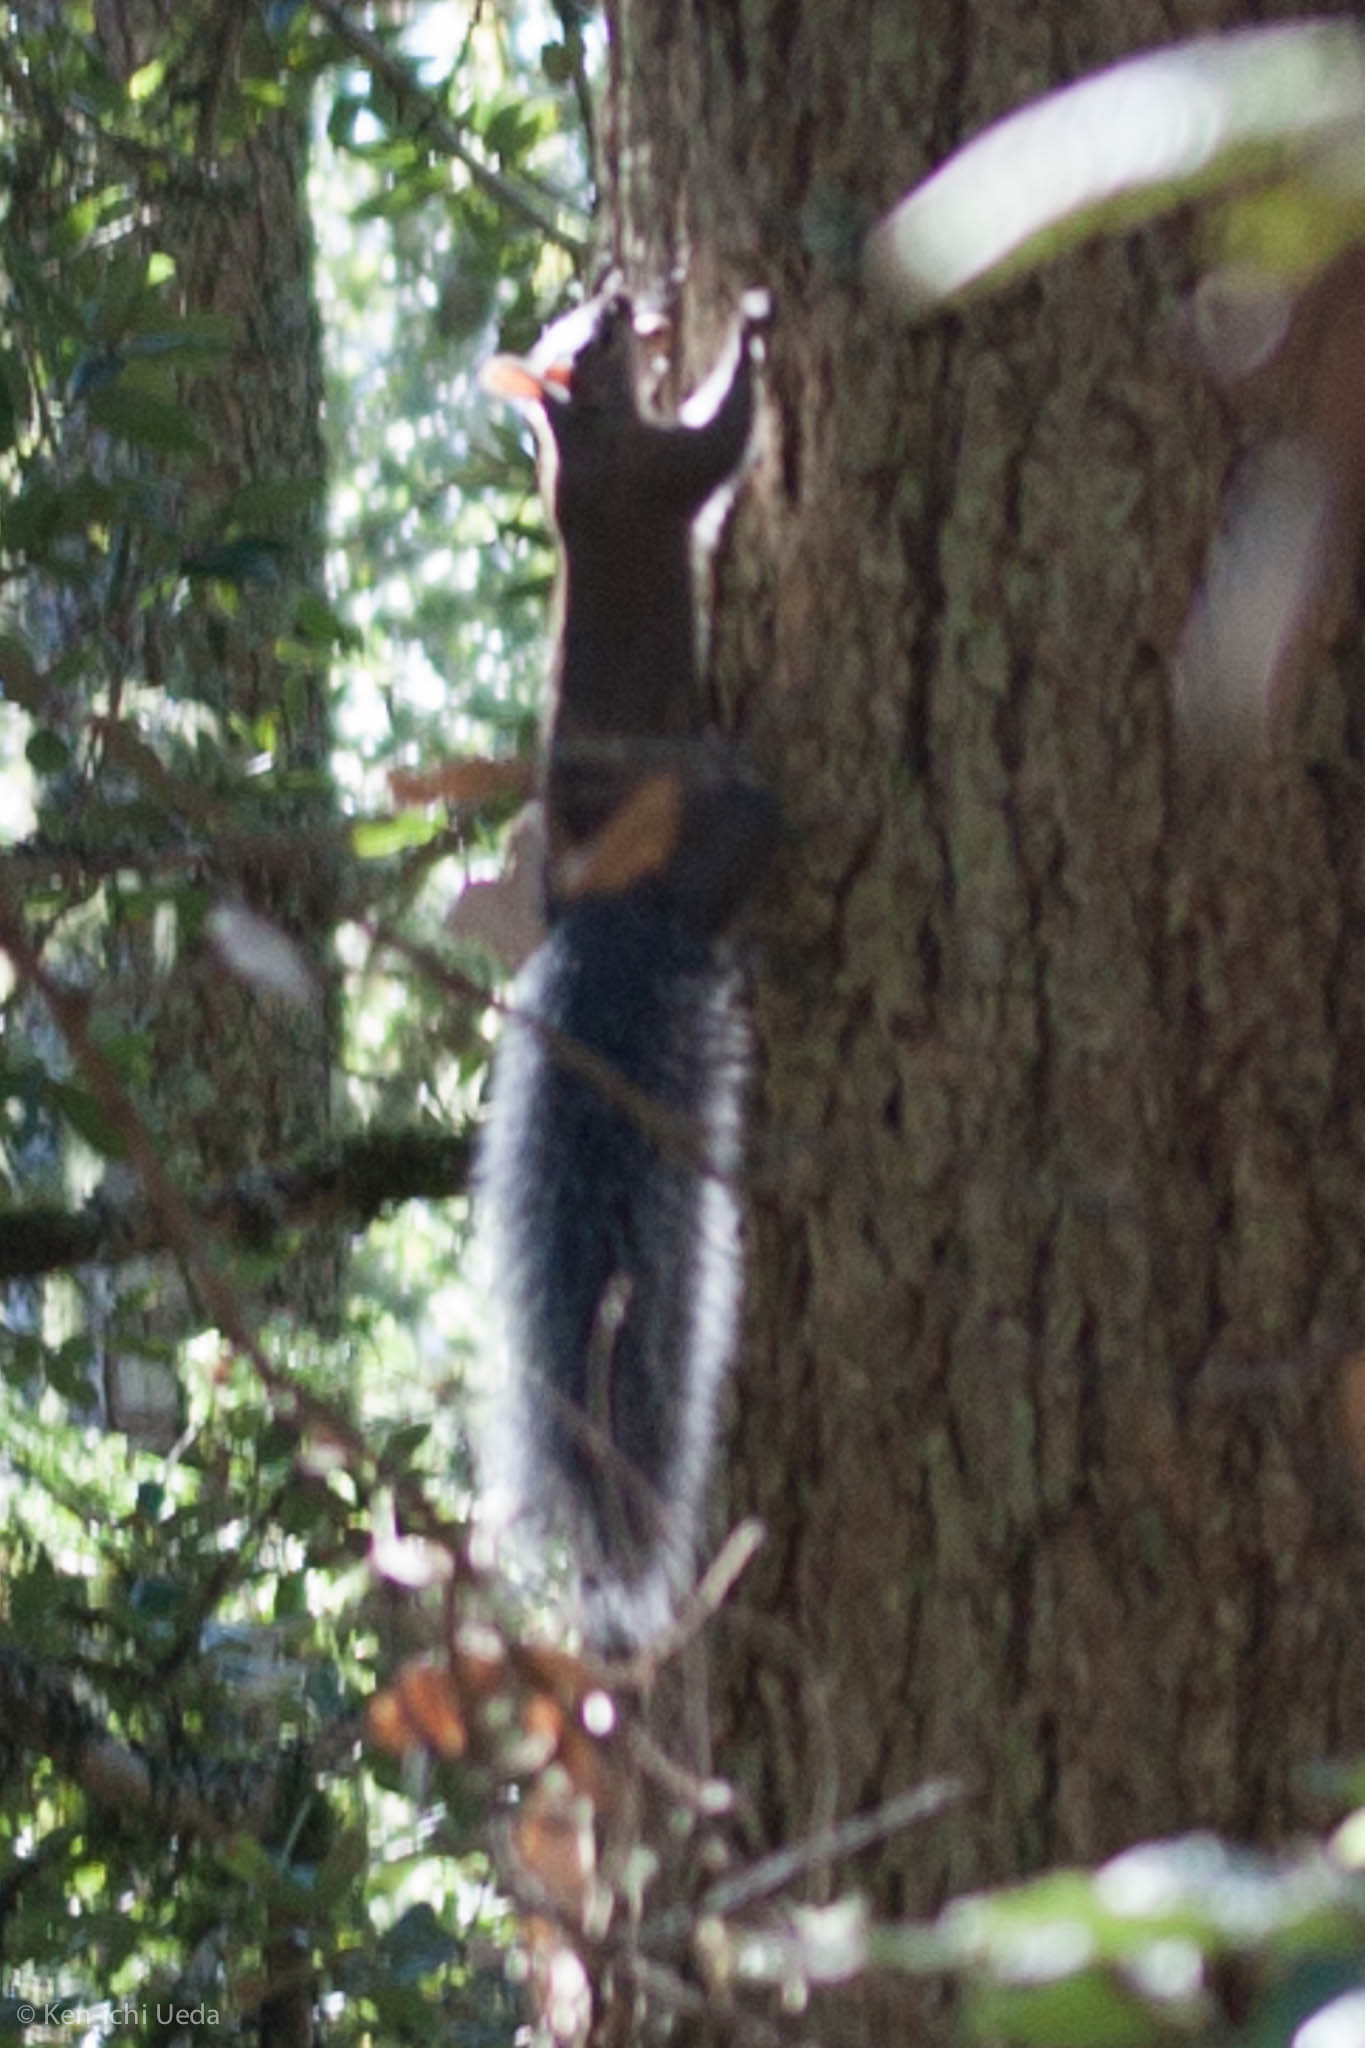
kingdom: Animalia
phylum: Chordata
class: Mammalia
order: Rodentia
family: Sciuridae
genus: Sciurus
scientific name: Sciurus griseus
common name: Western gray squirrel
